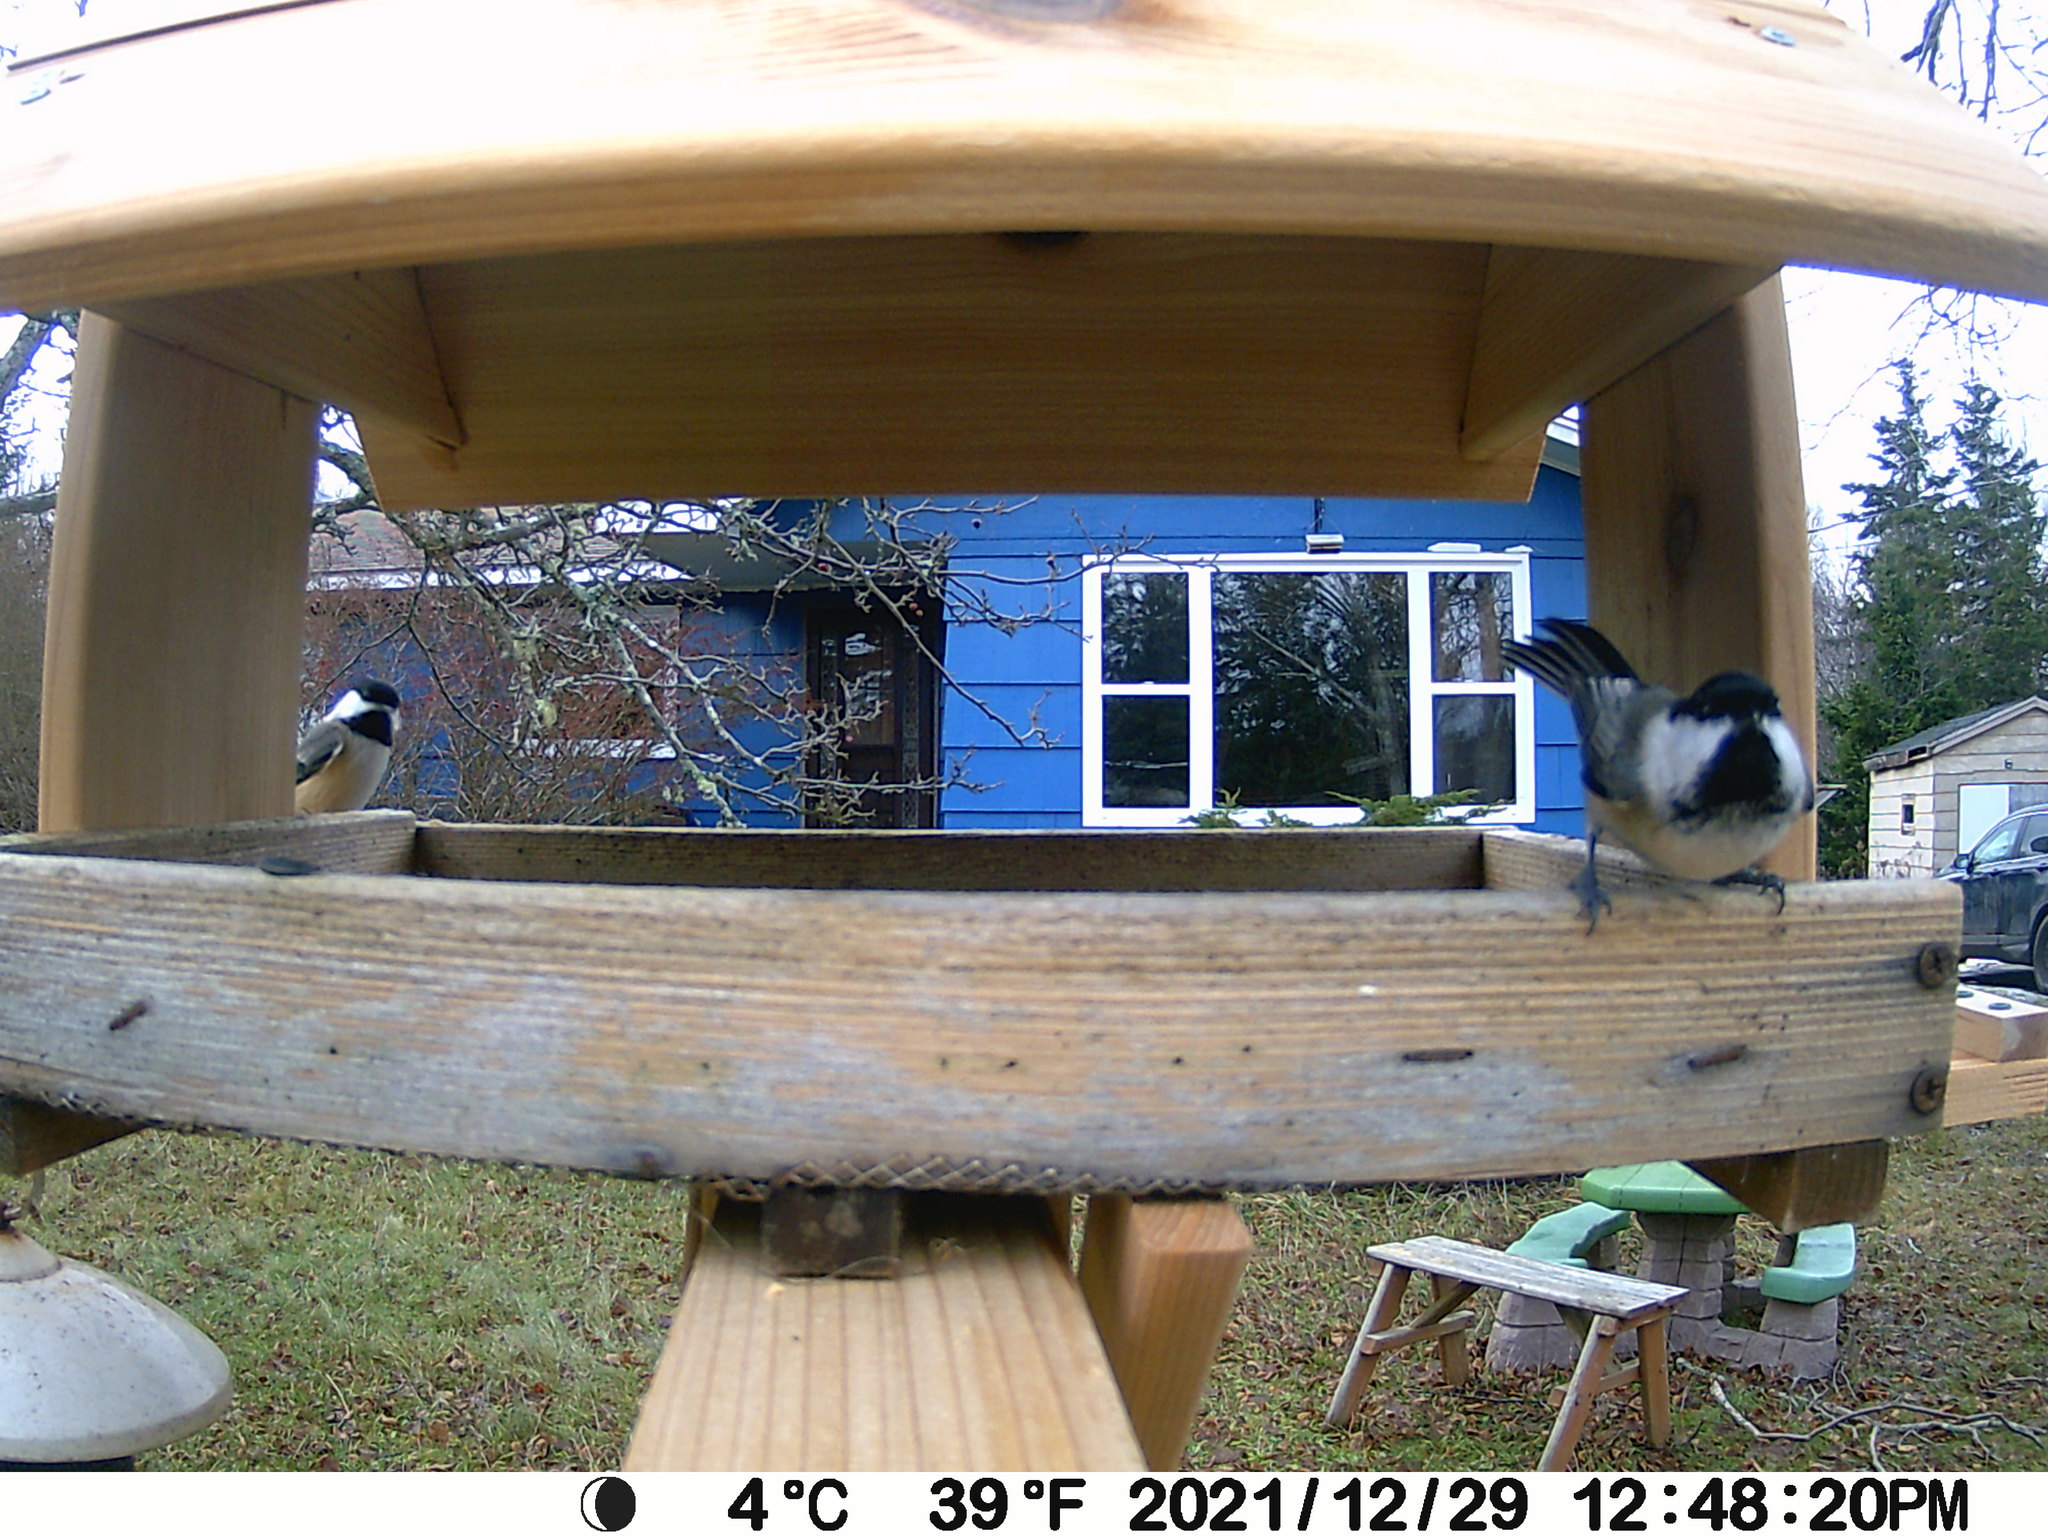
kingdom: Animalia
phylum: Chordata
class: Aves
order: Passeriformes
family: Paridae
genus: Poecile
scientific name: Poecile atricapillus
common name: Black-capped chickadee
